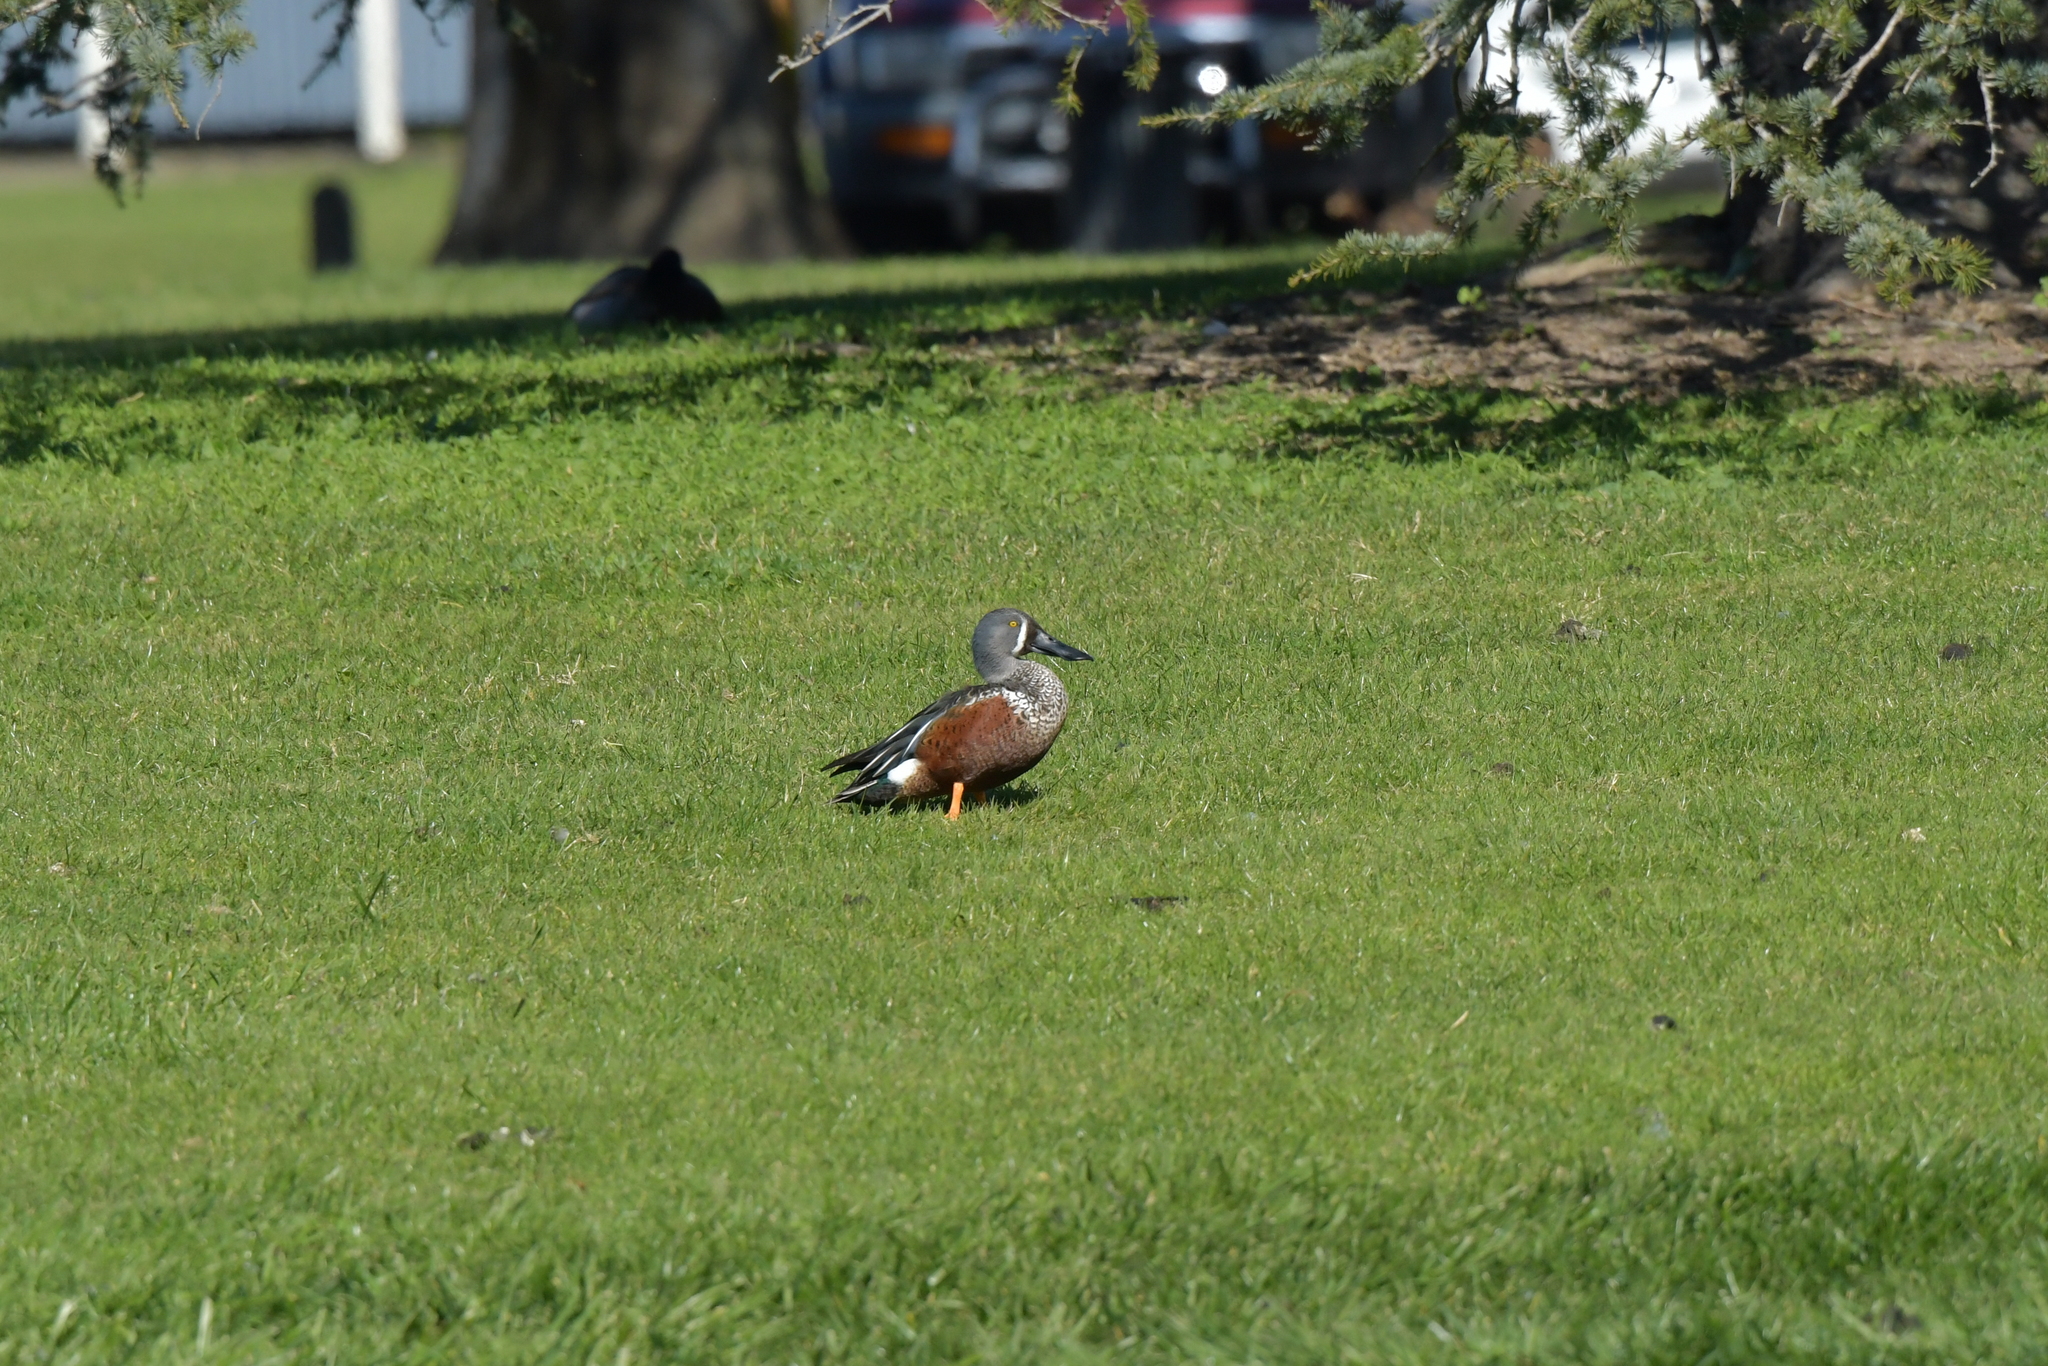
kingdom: Animalia
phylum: Chordata
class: Aves
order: Anseriformes
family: Anatidae
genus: Spatula
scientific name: Spatula rhynchotis
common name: Australian shoveler
